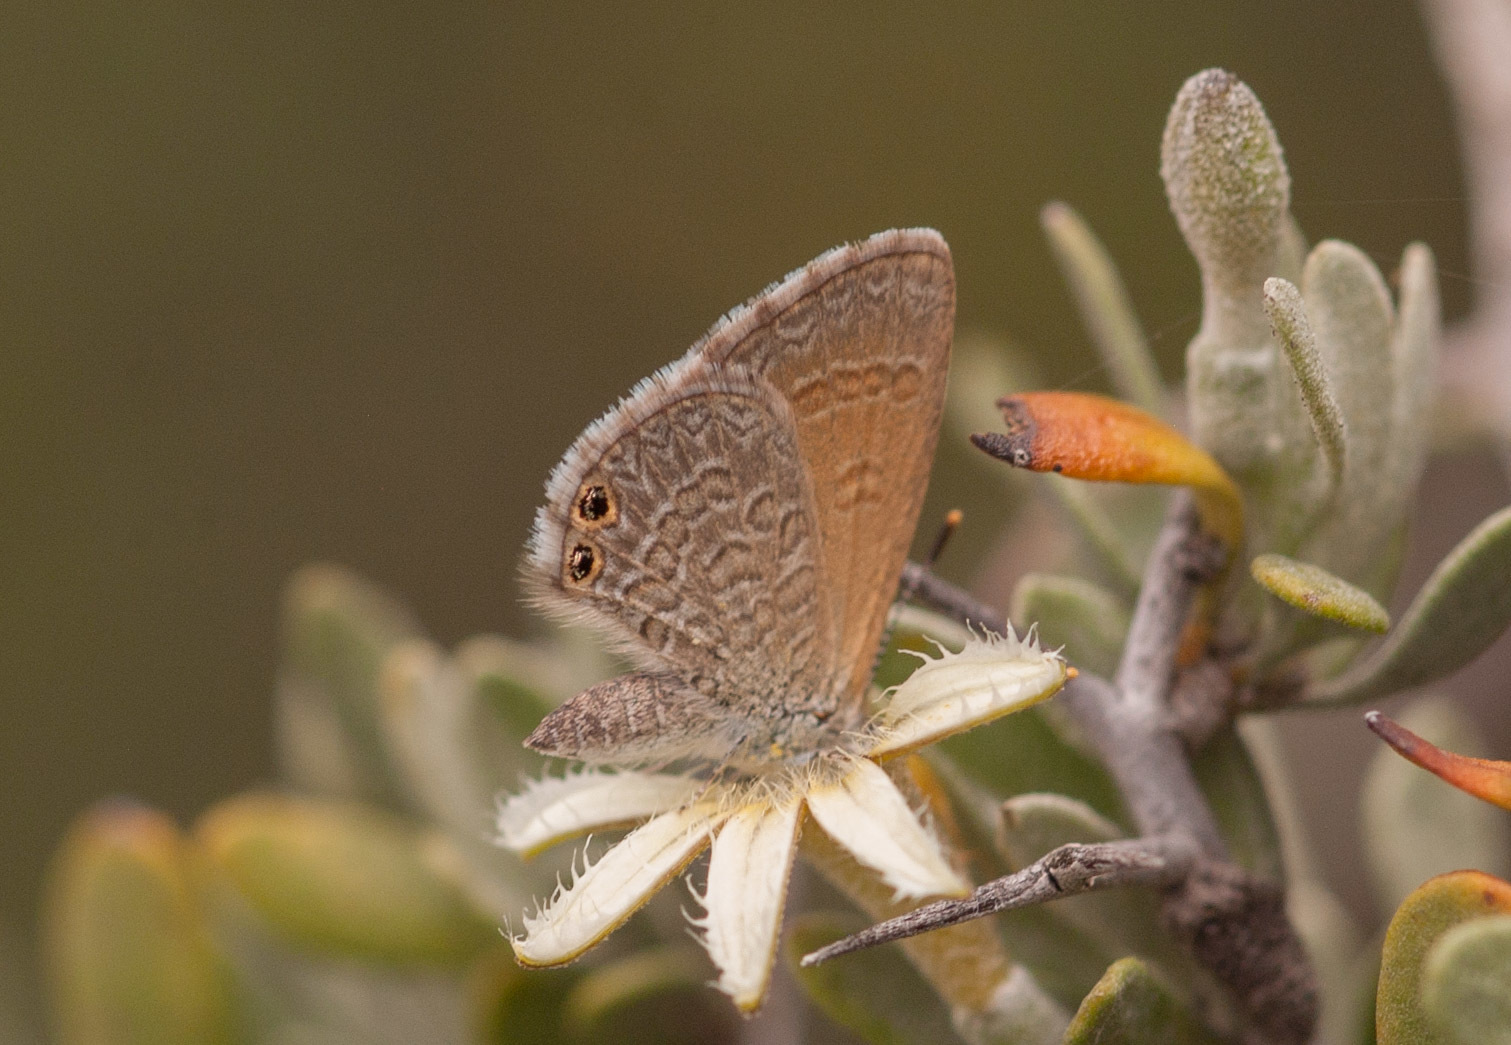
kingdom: Animalia
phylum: Arthropoda
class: Insecta
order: Lepidoptera
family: Lycaenidae
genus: Nacaduba
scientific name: Nacaduba biocellata
